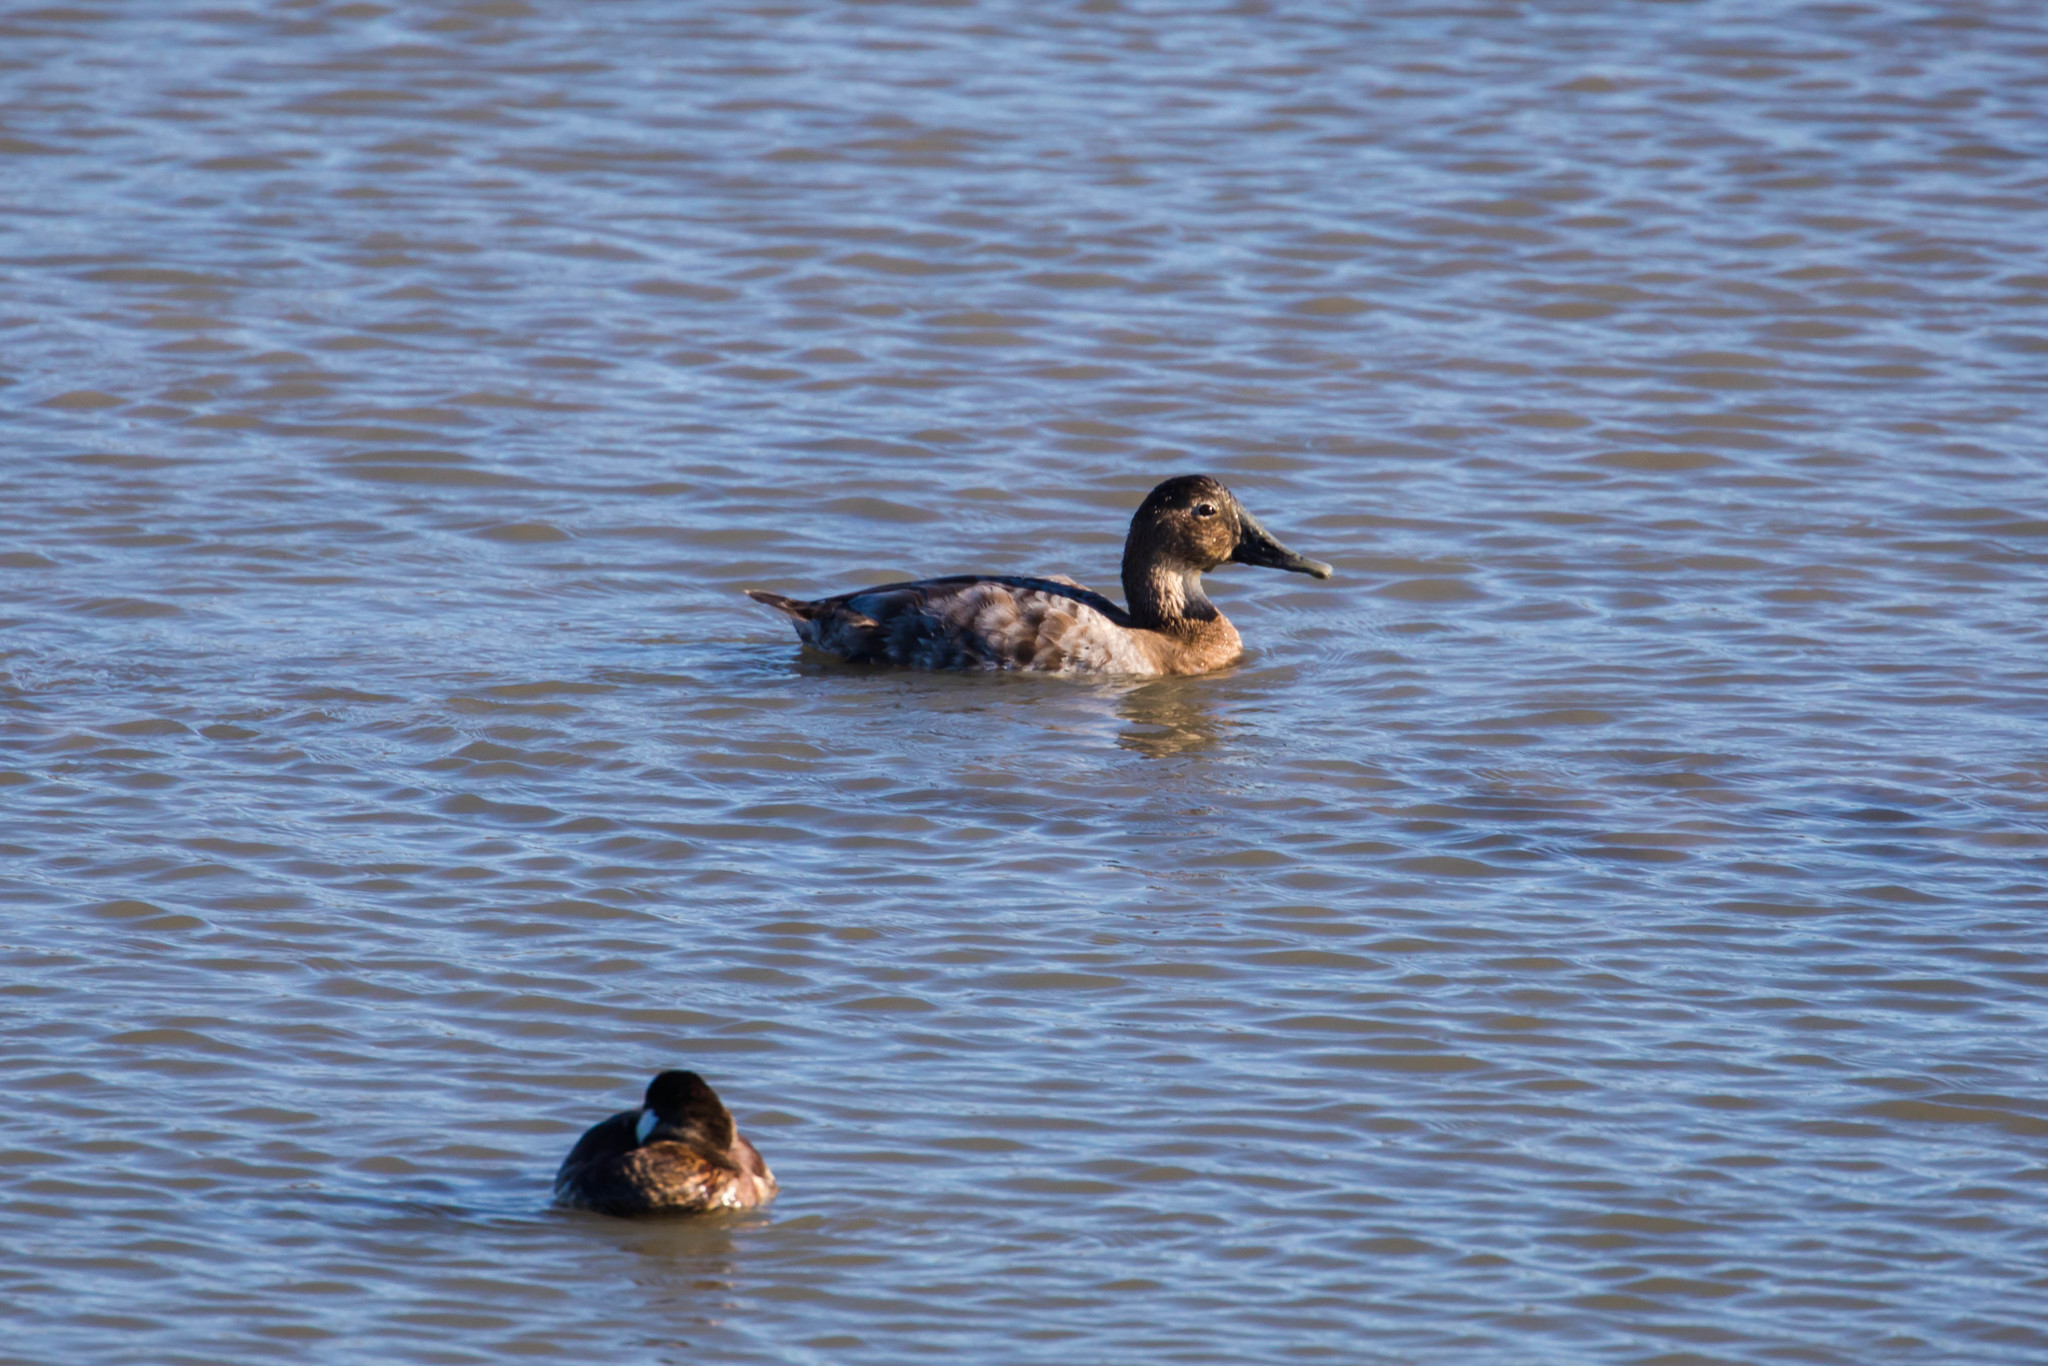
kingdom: Animalia
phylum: Chordata
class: Aves
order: Anseriformes
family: Anatidae
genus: Aythya
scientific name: Aythya valisineria
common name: Canvasback
